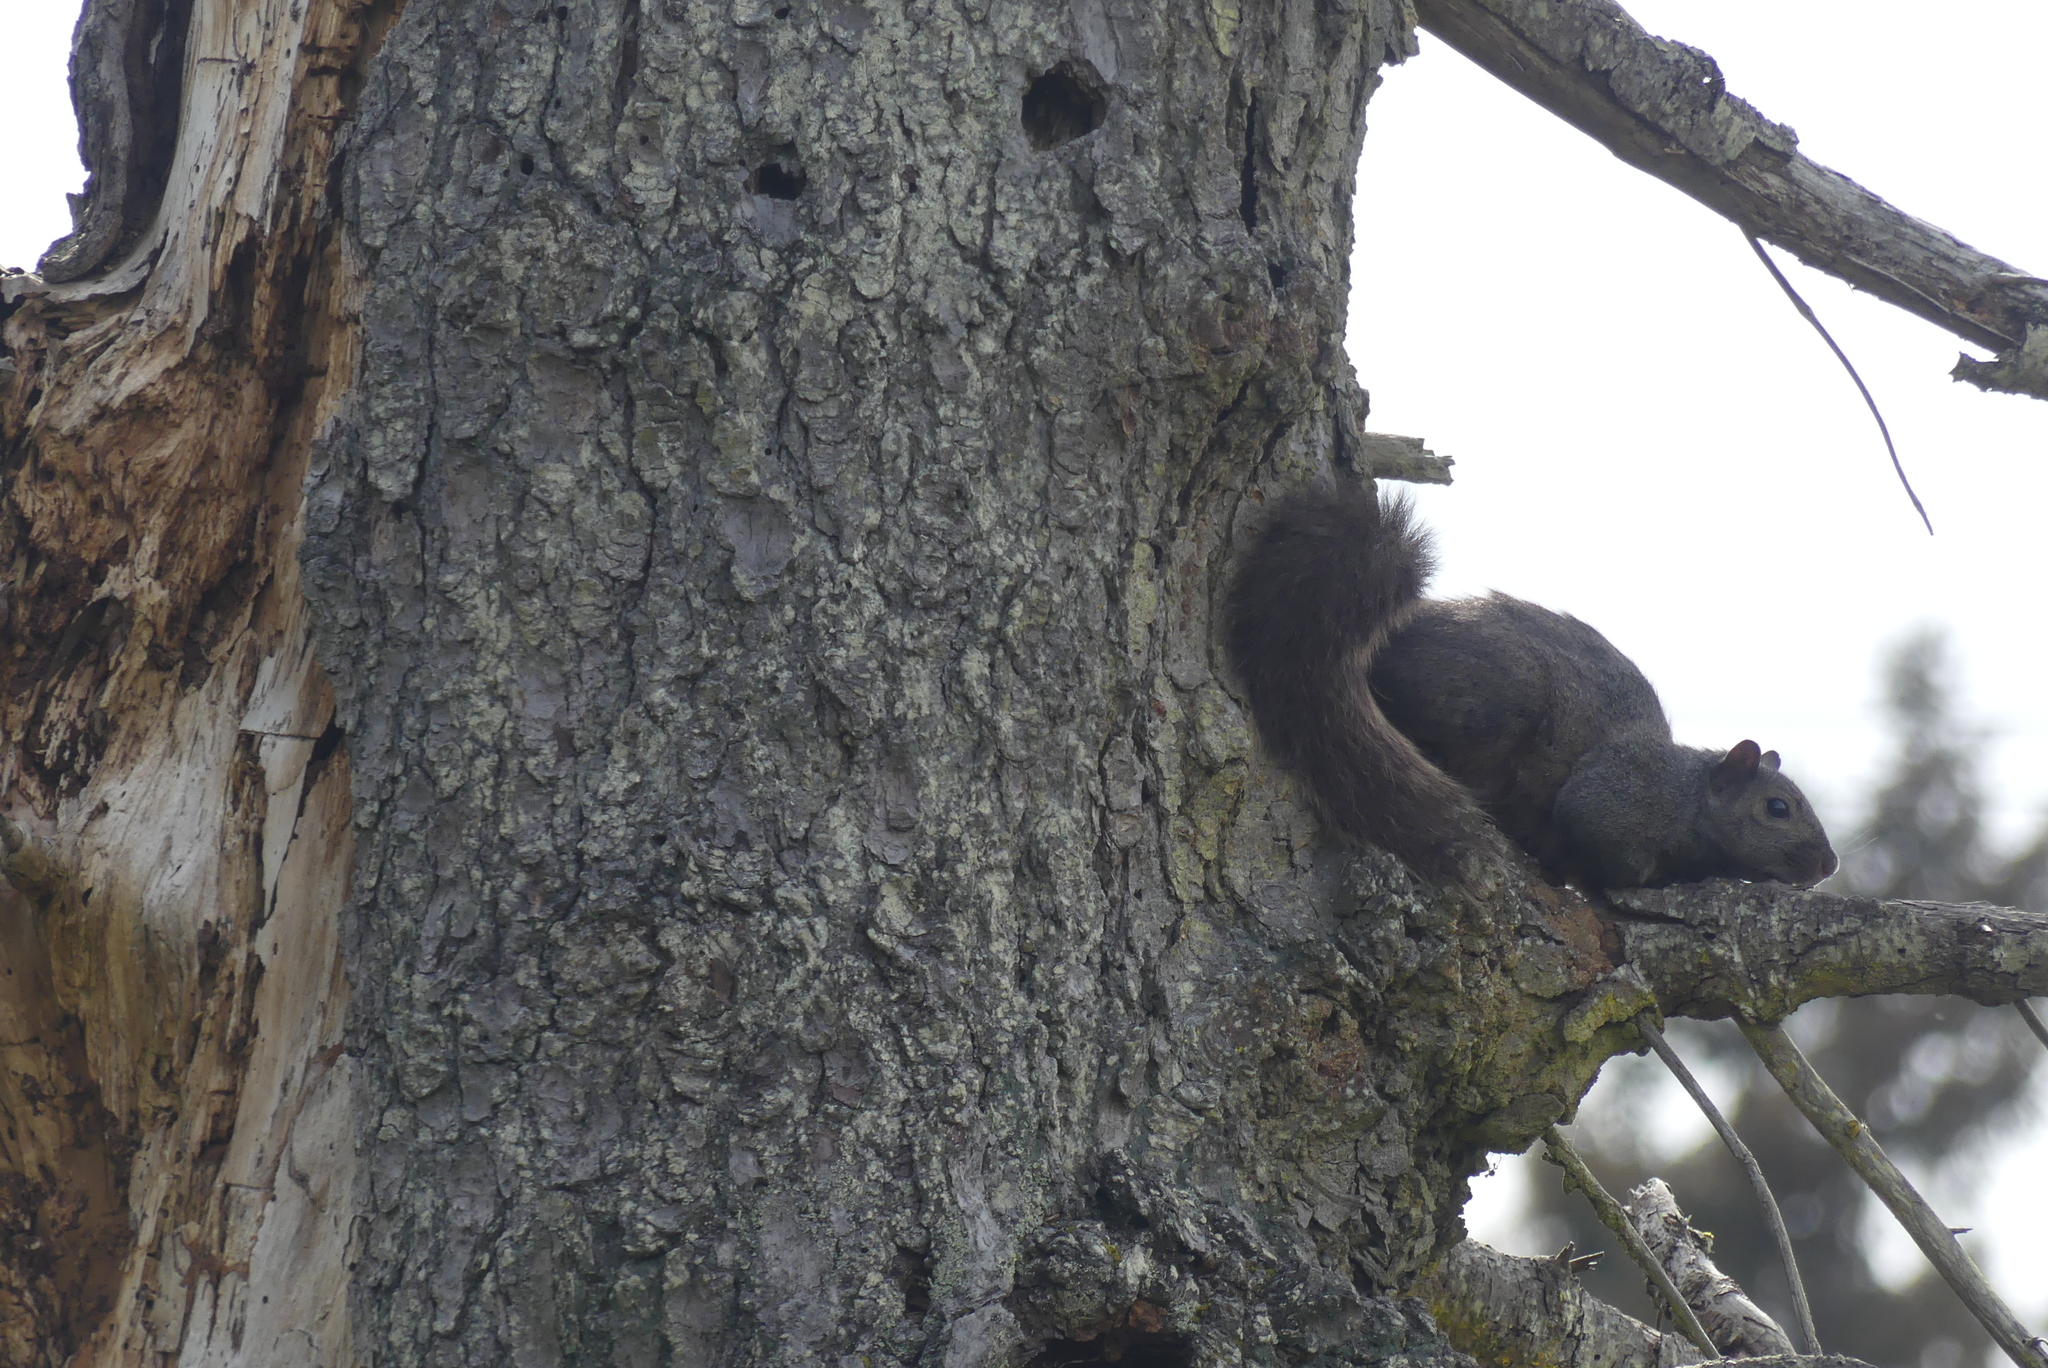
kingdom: Animalia
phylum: Chordata
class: Mammalia
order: Rodentia
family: Sciuridae
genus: Sciurus
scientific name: Sciurus carolinensis
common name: Eastern gray squirrel
